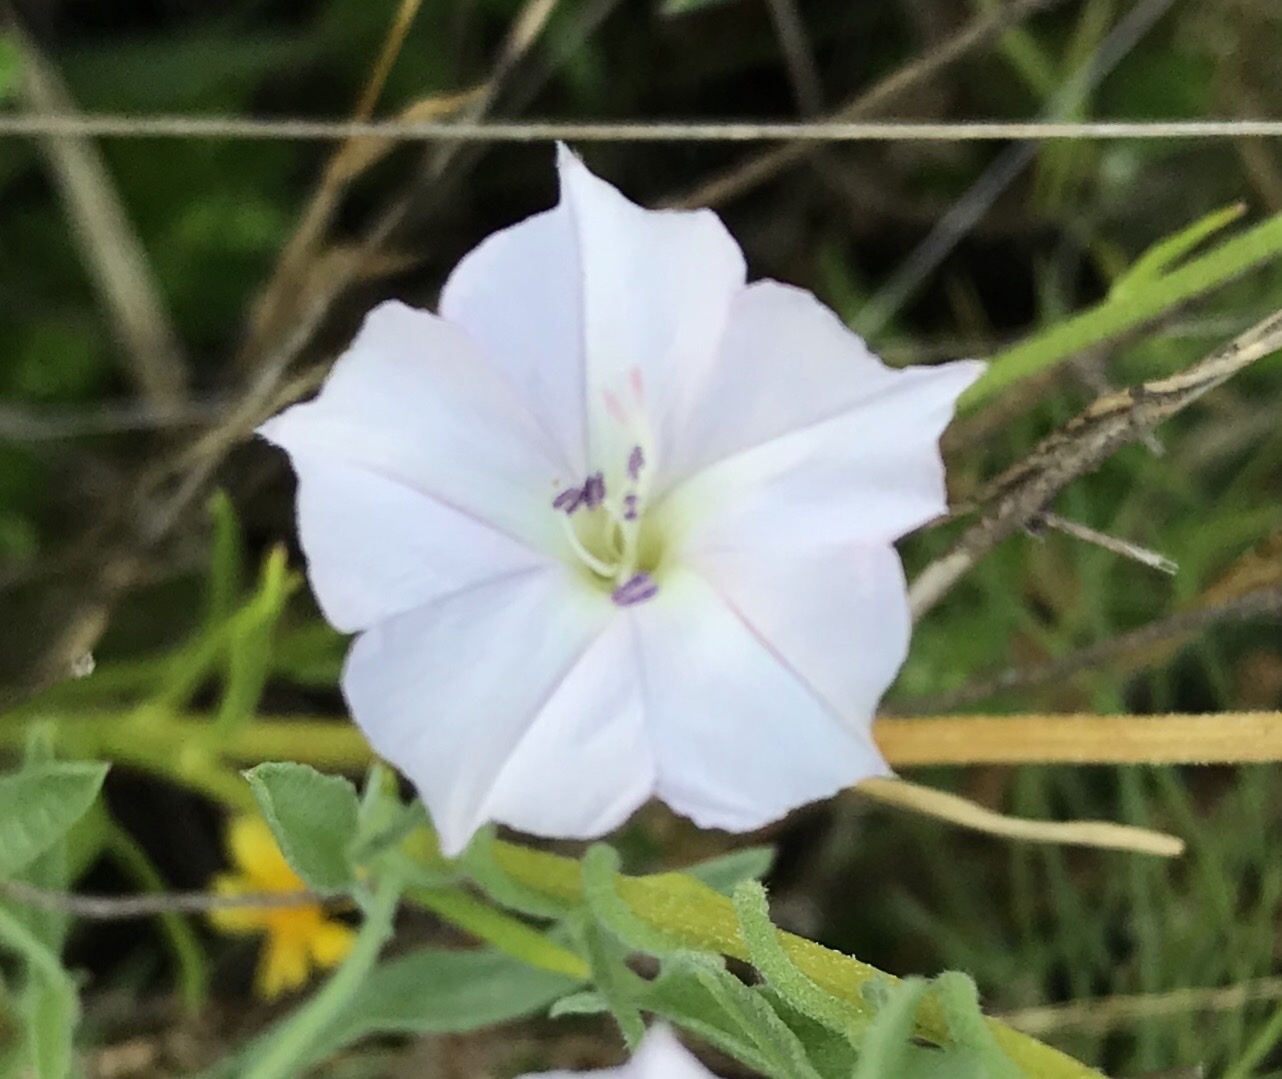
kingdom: Plantae
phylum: Tracheophyta
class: Magnoliopsida
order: Solanales
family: Convolvulaceae
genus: Convolvulus
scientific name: Convolvulus equitans
